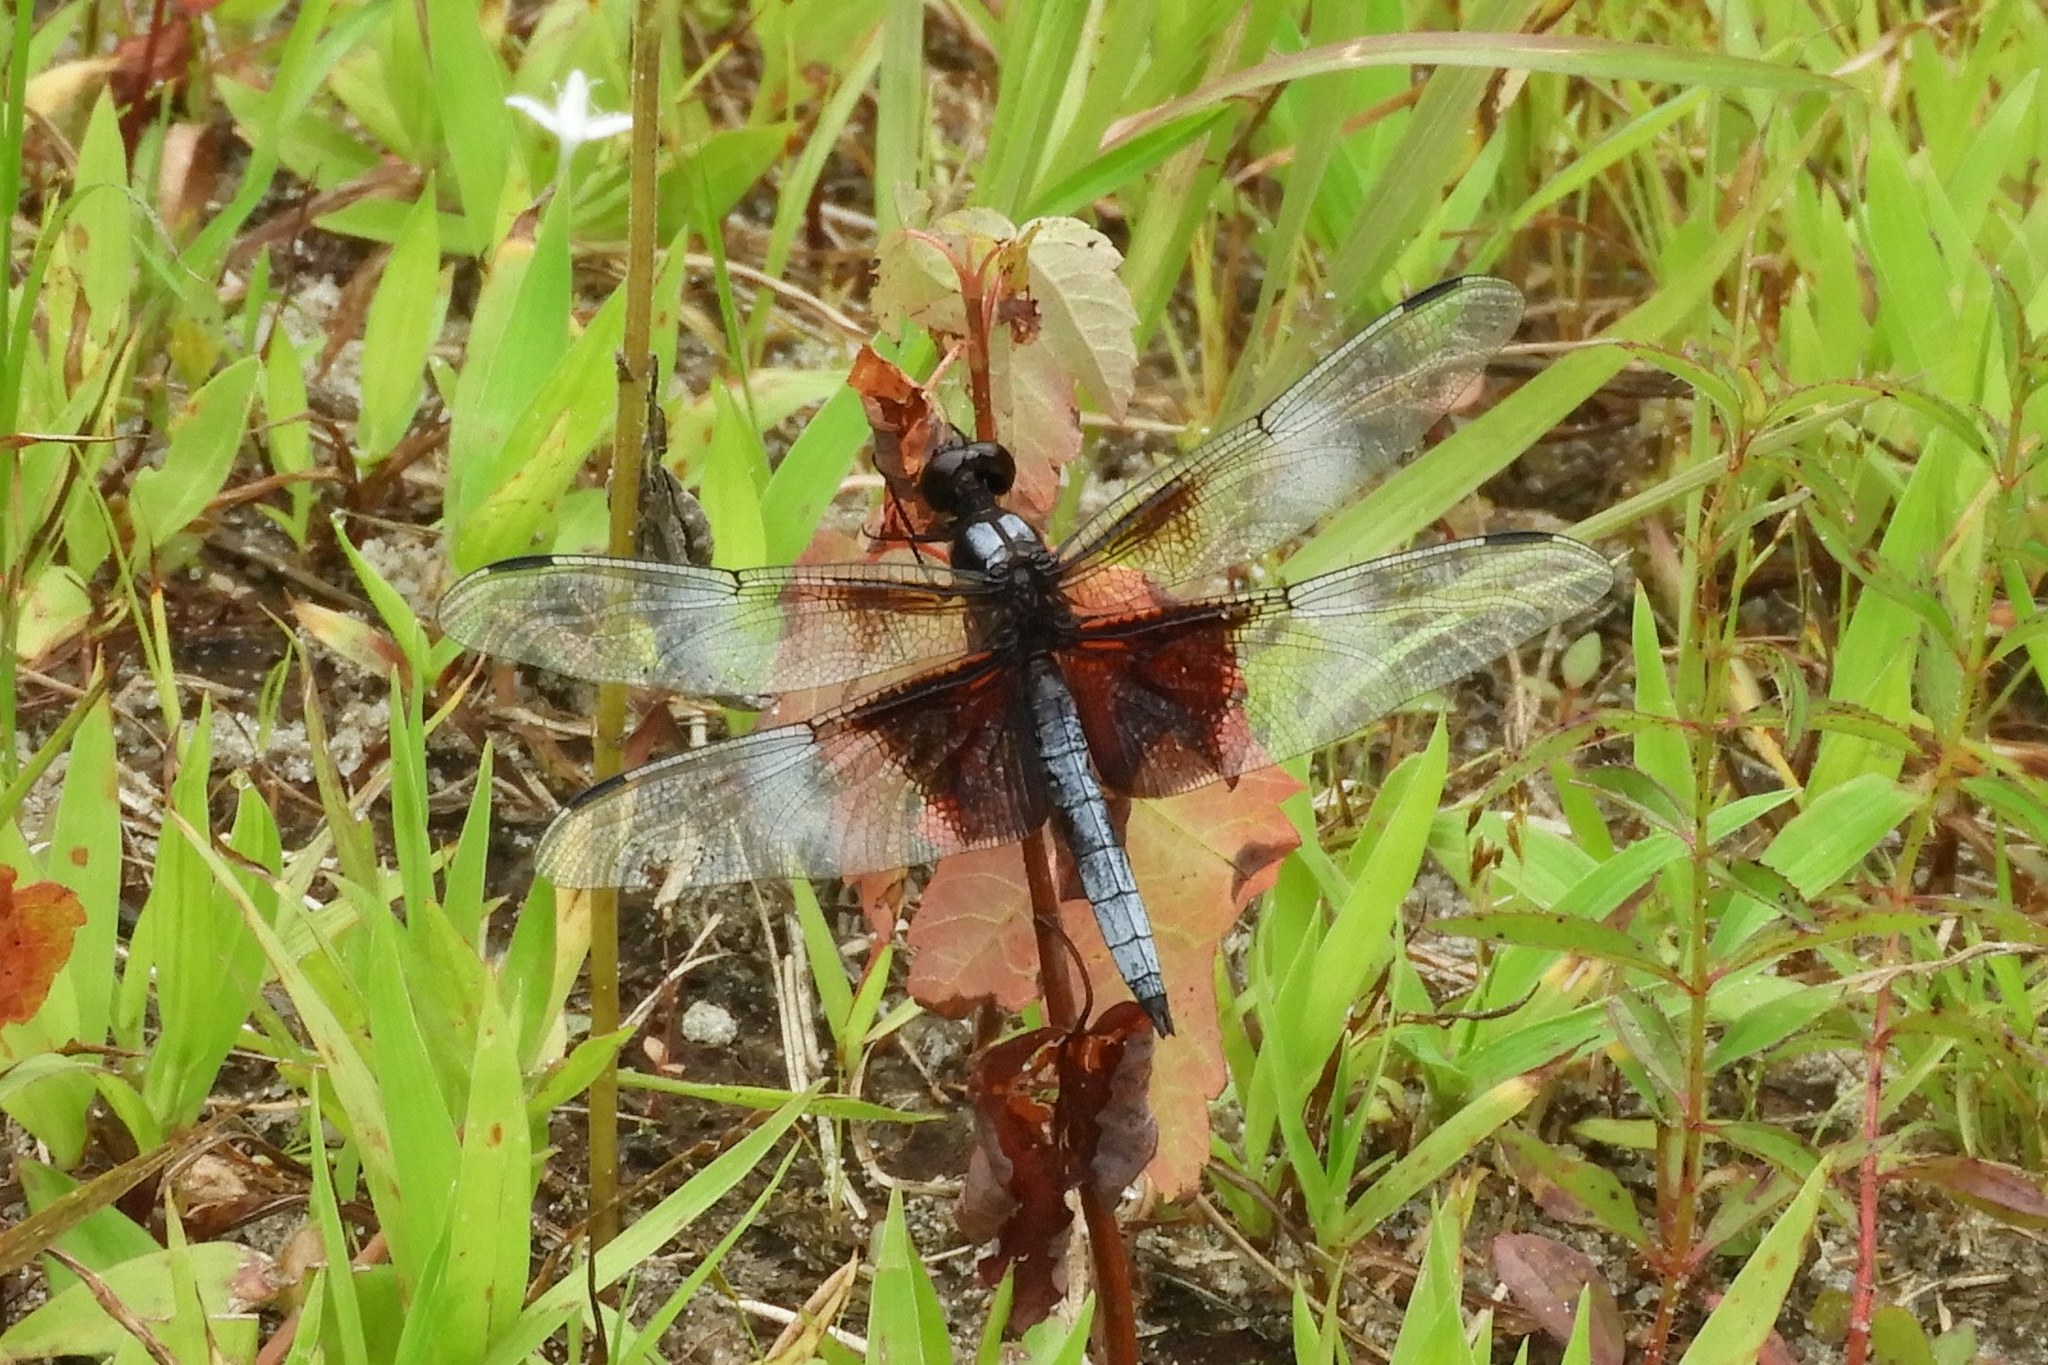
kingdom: Animalia
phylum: Arthropoda
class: Insecta
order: Odonata
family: Libellulidae
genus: Libellula
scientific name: Libellula luctuosa
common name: Widow skimmer
